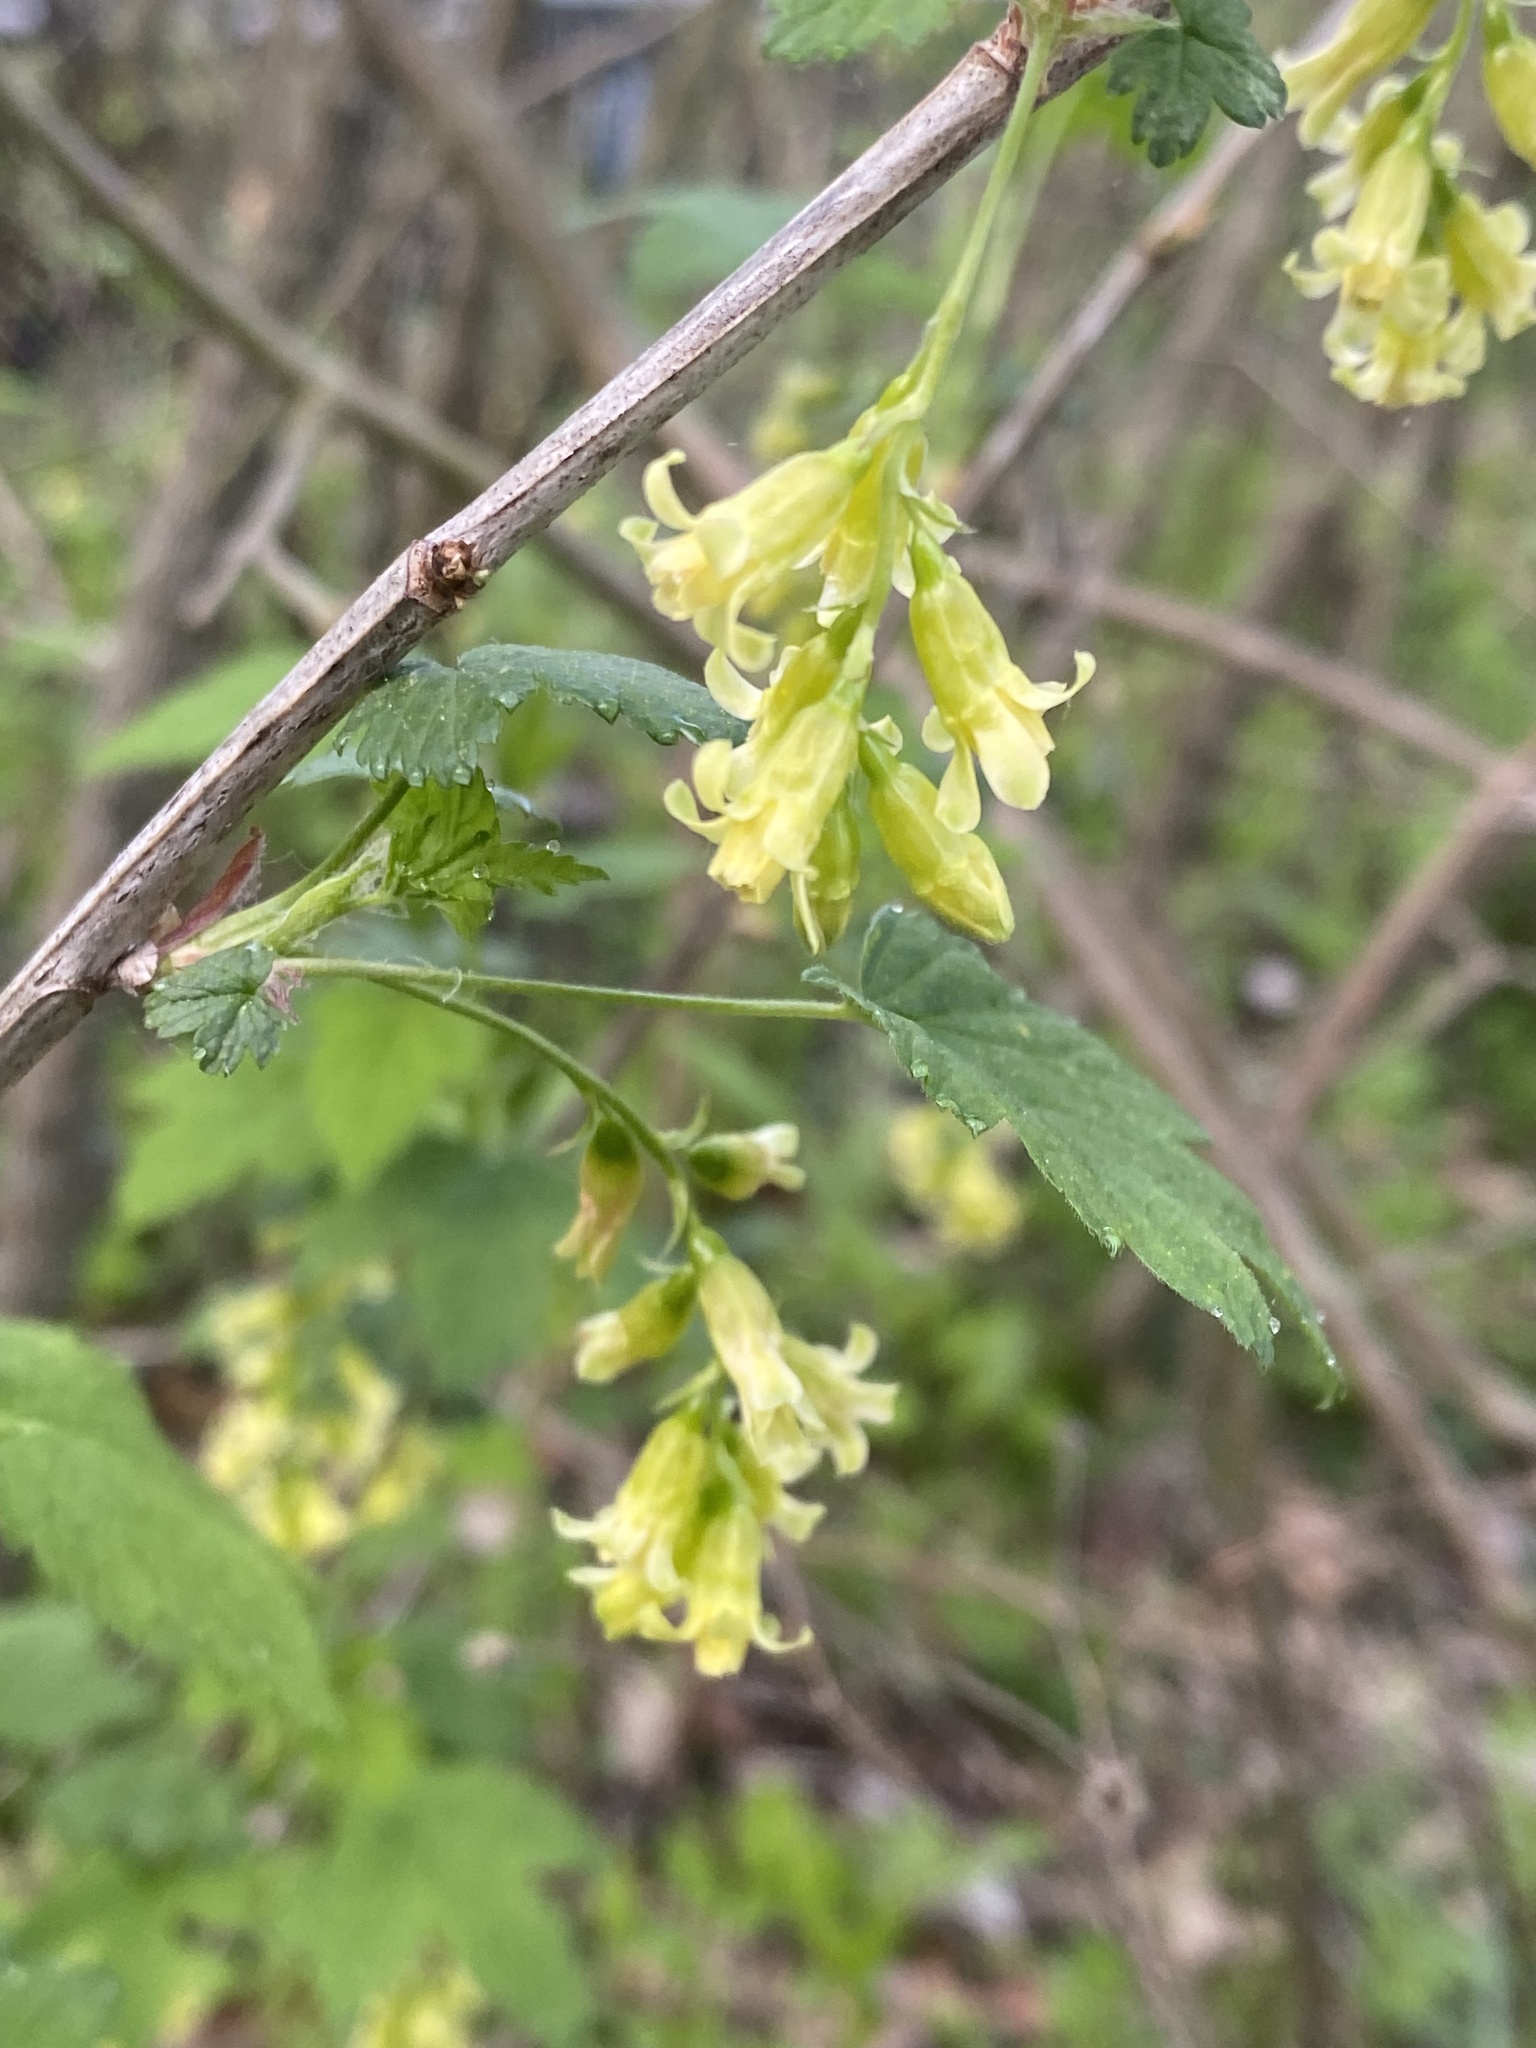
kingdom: Plantae
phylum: Tracheophyta
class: Magnoliopsida
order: Saxifragales
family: Grossulariaceae
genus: Ribes
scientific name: Ribes americanum
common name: American black currant
